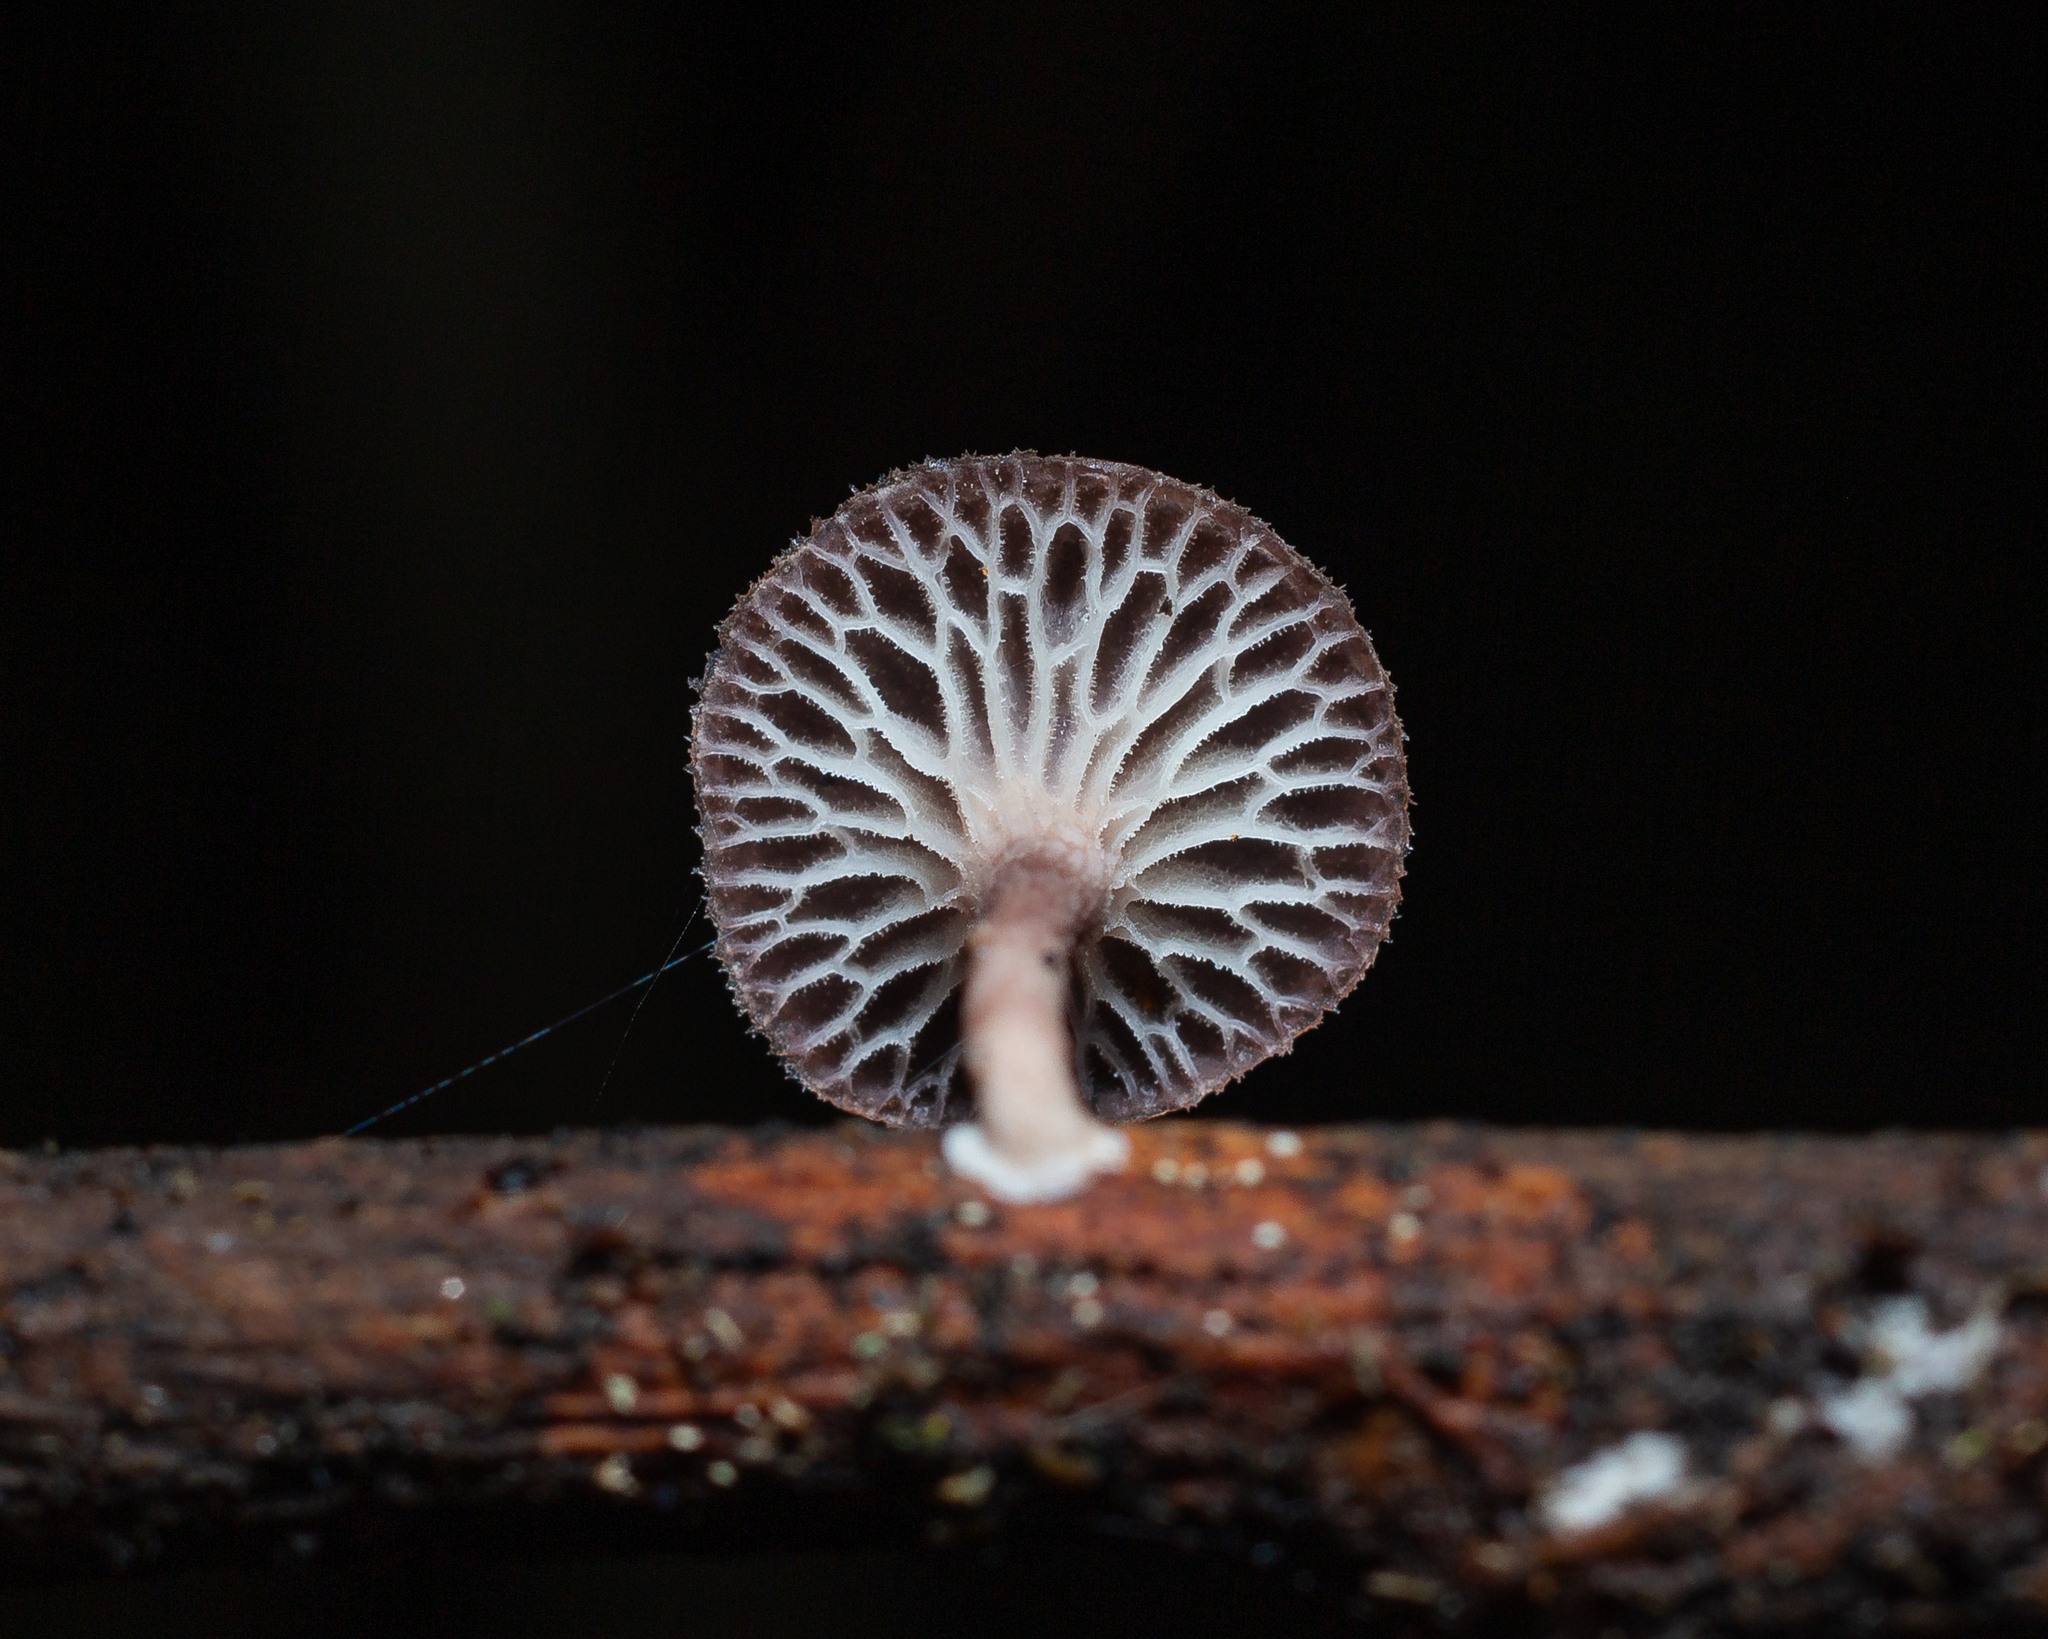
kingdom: Fungi
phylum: Basidiomycota
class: Agaricomycetes
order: Polyporales
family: Polyporaceae
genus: Neofavolus
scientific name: Neofavolus subpurpurascens
